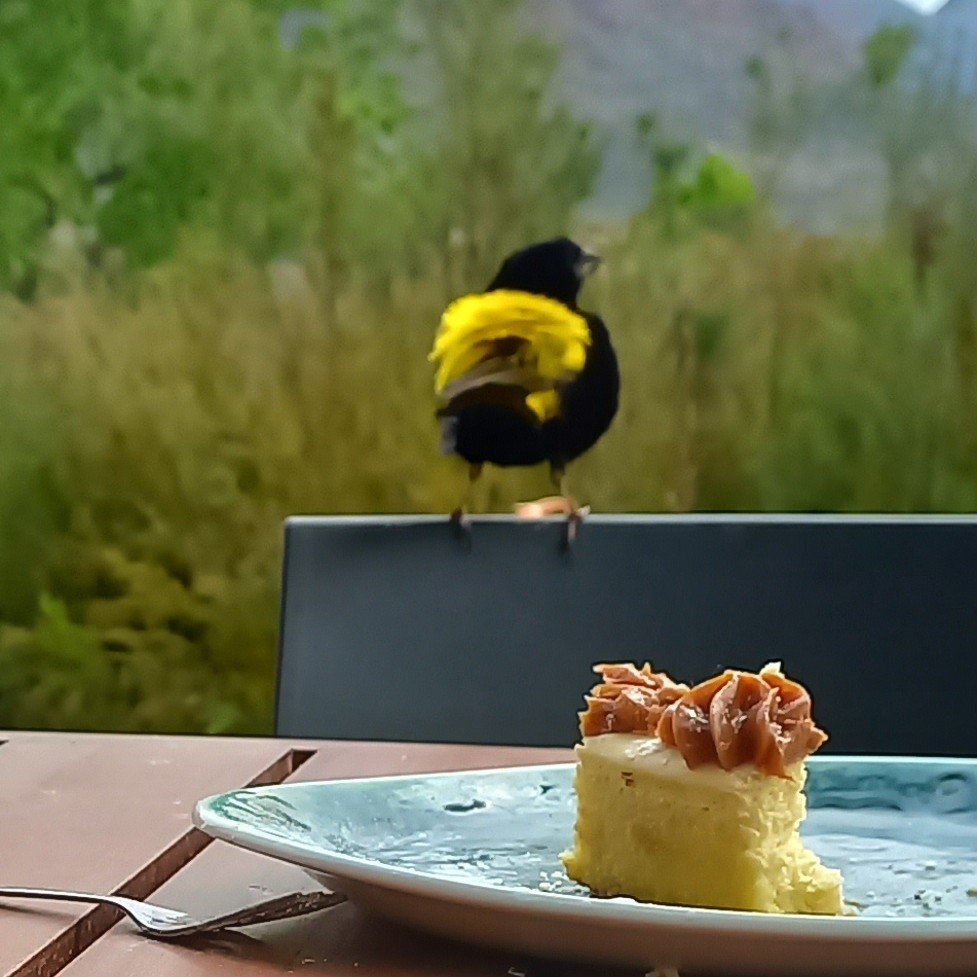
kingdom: Animalia
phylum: Chordata
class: Aves
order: Passeriformes
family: Ploceidae
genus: Euplectes
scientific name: Euplectes capensis
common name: Yellow bishop
